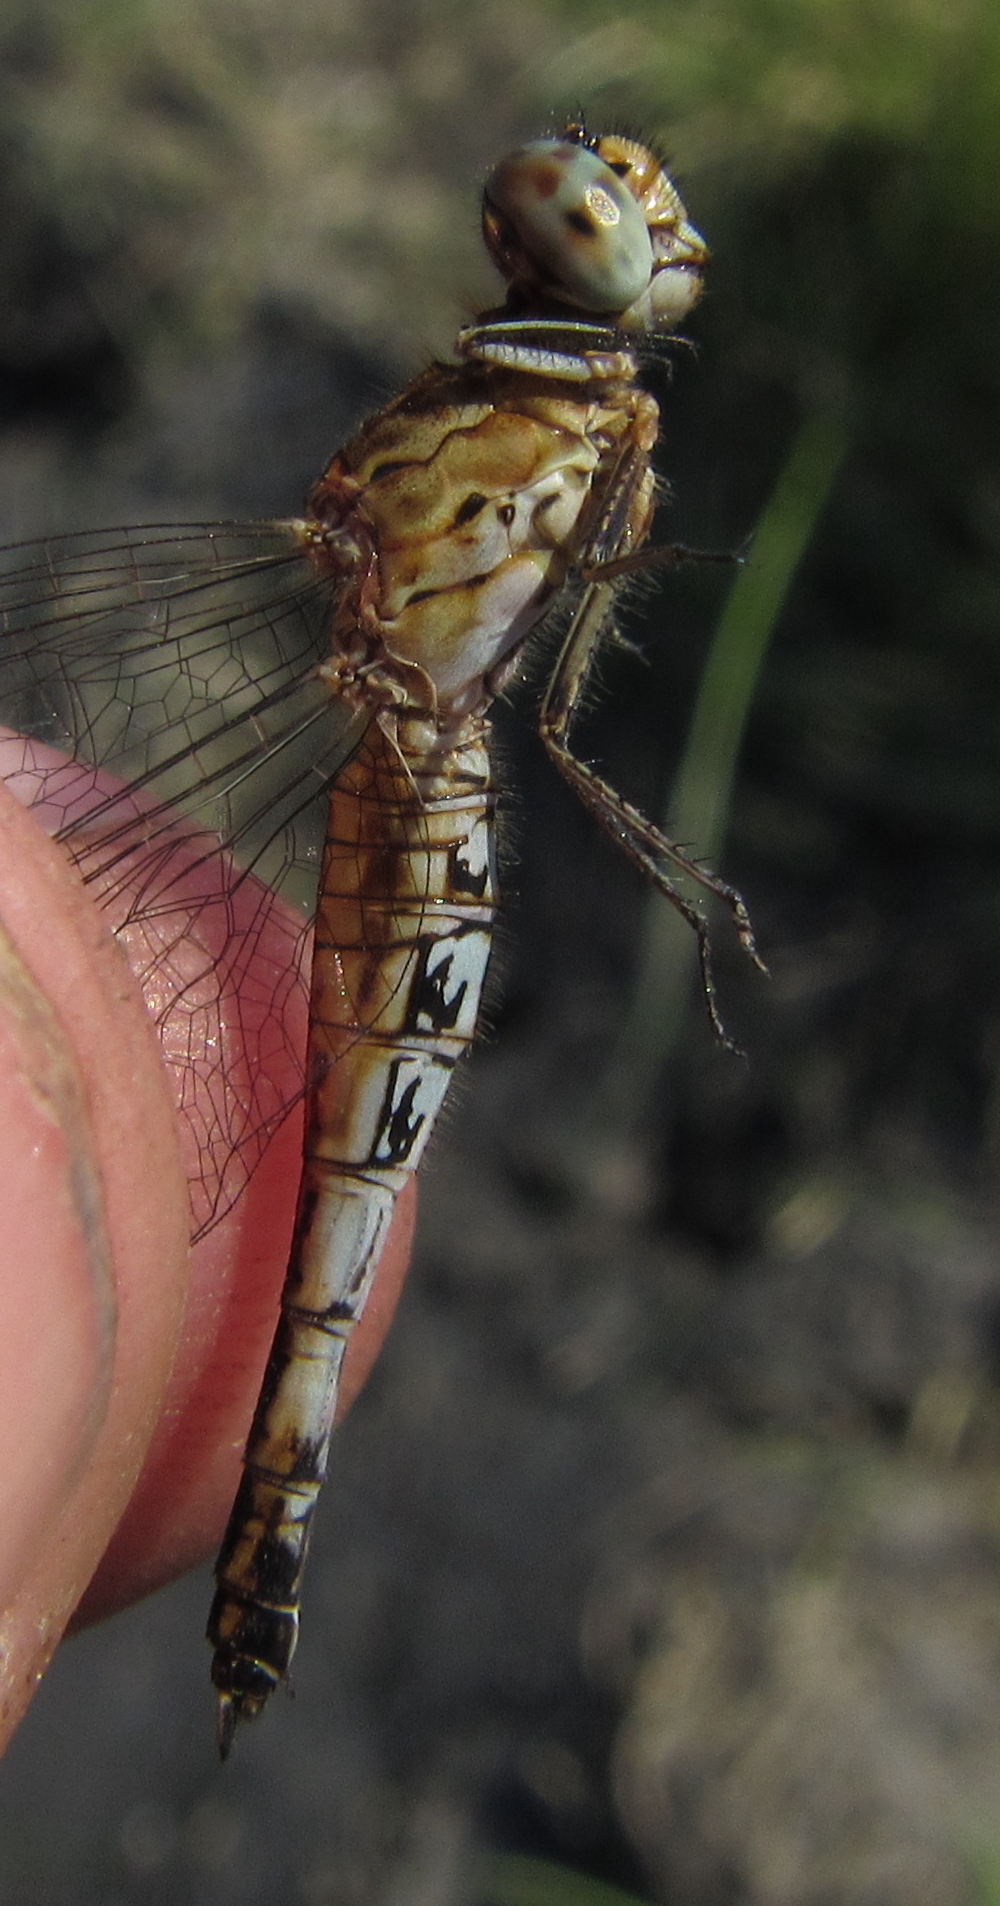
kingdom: Animalia
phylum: Arthropoda
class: Insecta
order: Odonata
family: Libellulidae
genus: Acisoma
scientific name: Acisoma inflatum
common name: Stout pintail
